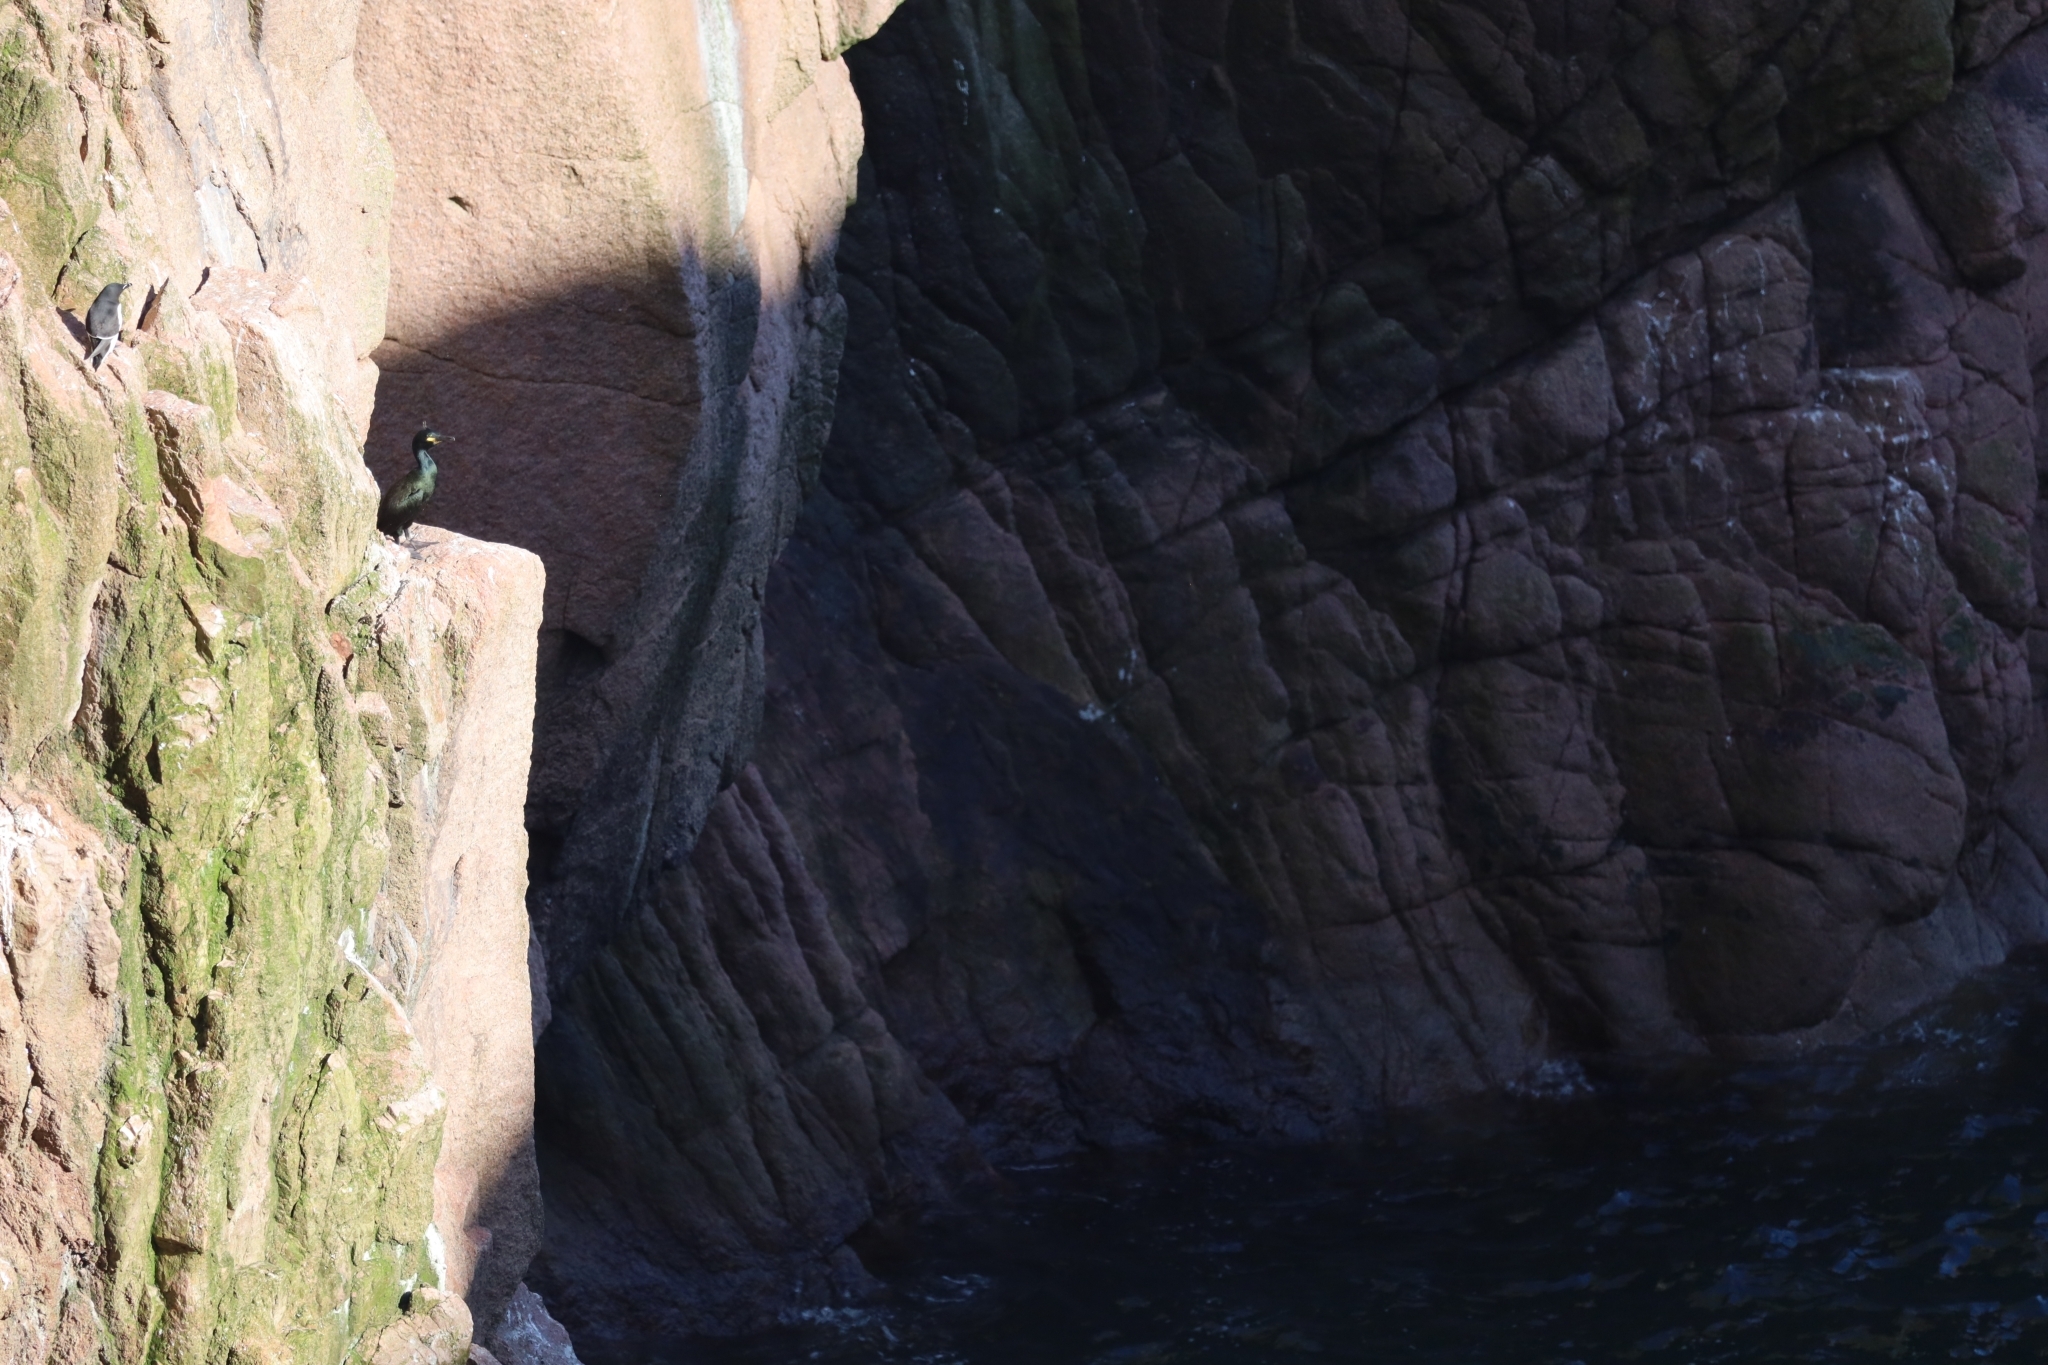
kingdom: Animalia
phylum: Chordata
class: Aves
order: Suliformes
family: Phalacrocoracidae
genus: Phalacrocorax
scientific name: Phalacrocorax aristotelis
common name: European shag
